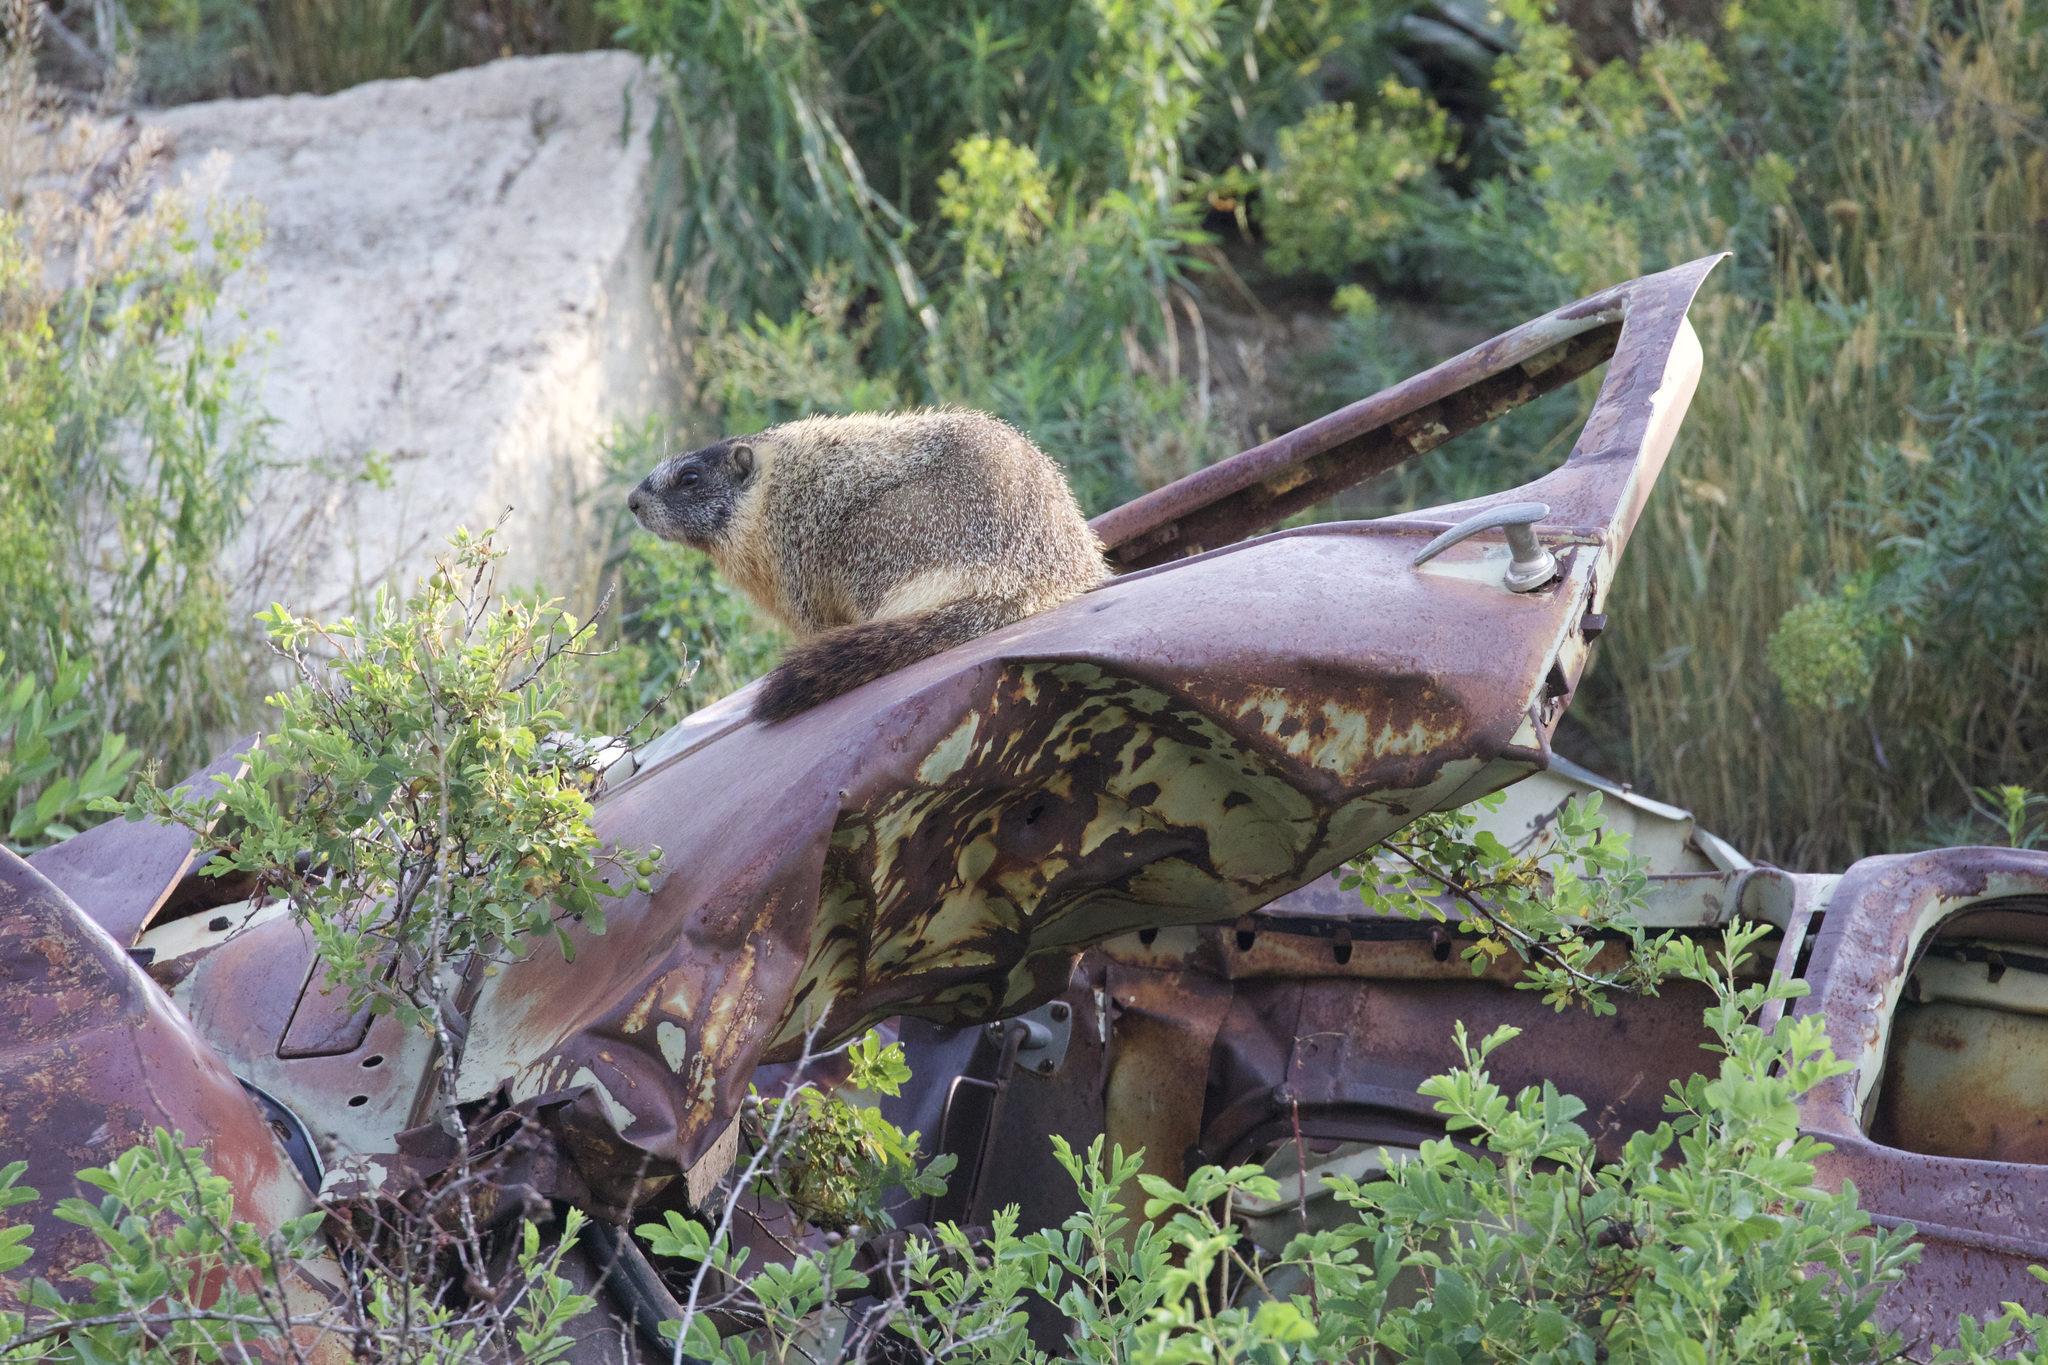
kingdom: Animalia
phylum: Chordata
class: Mammalia
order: Rodentia
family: Sciuridae
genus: Marmota
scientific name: Marmota flaviventris
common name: Yellow-bellied marmot
